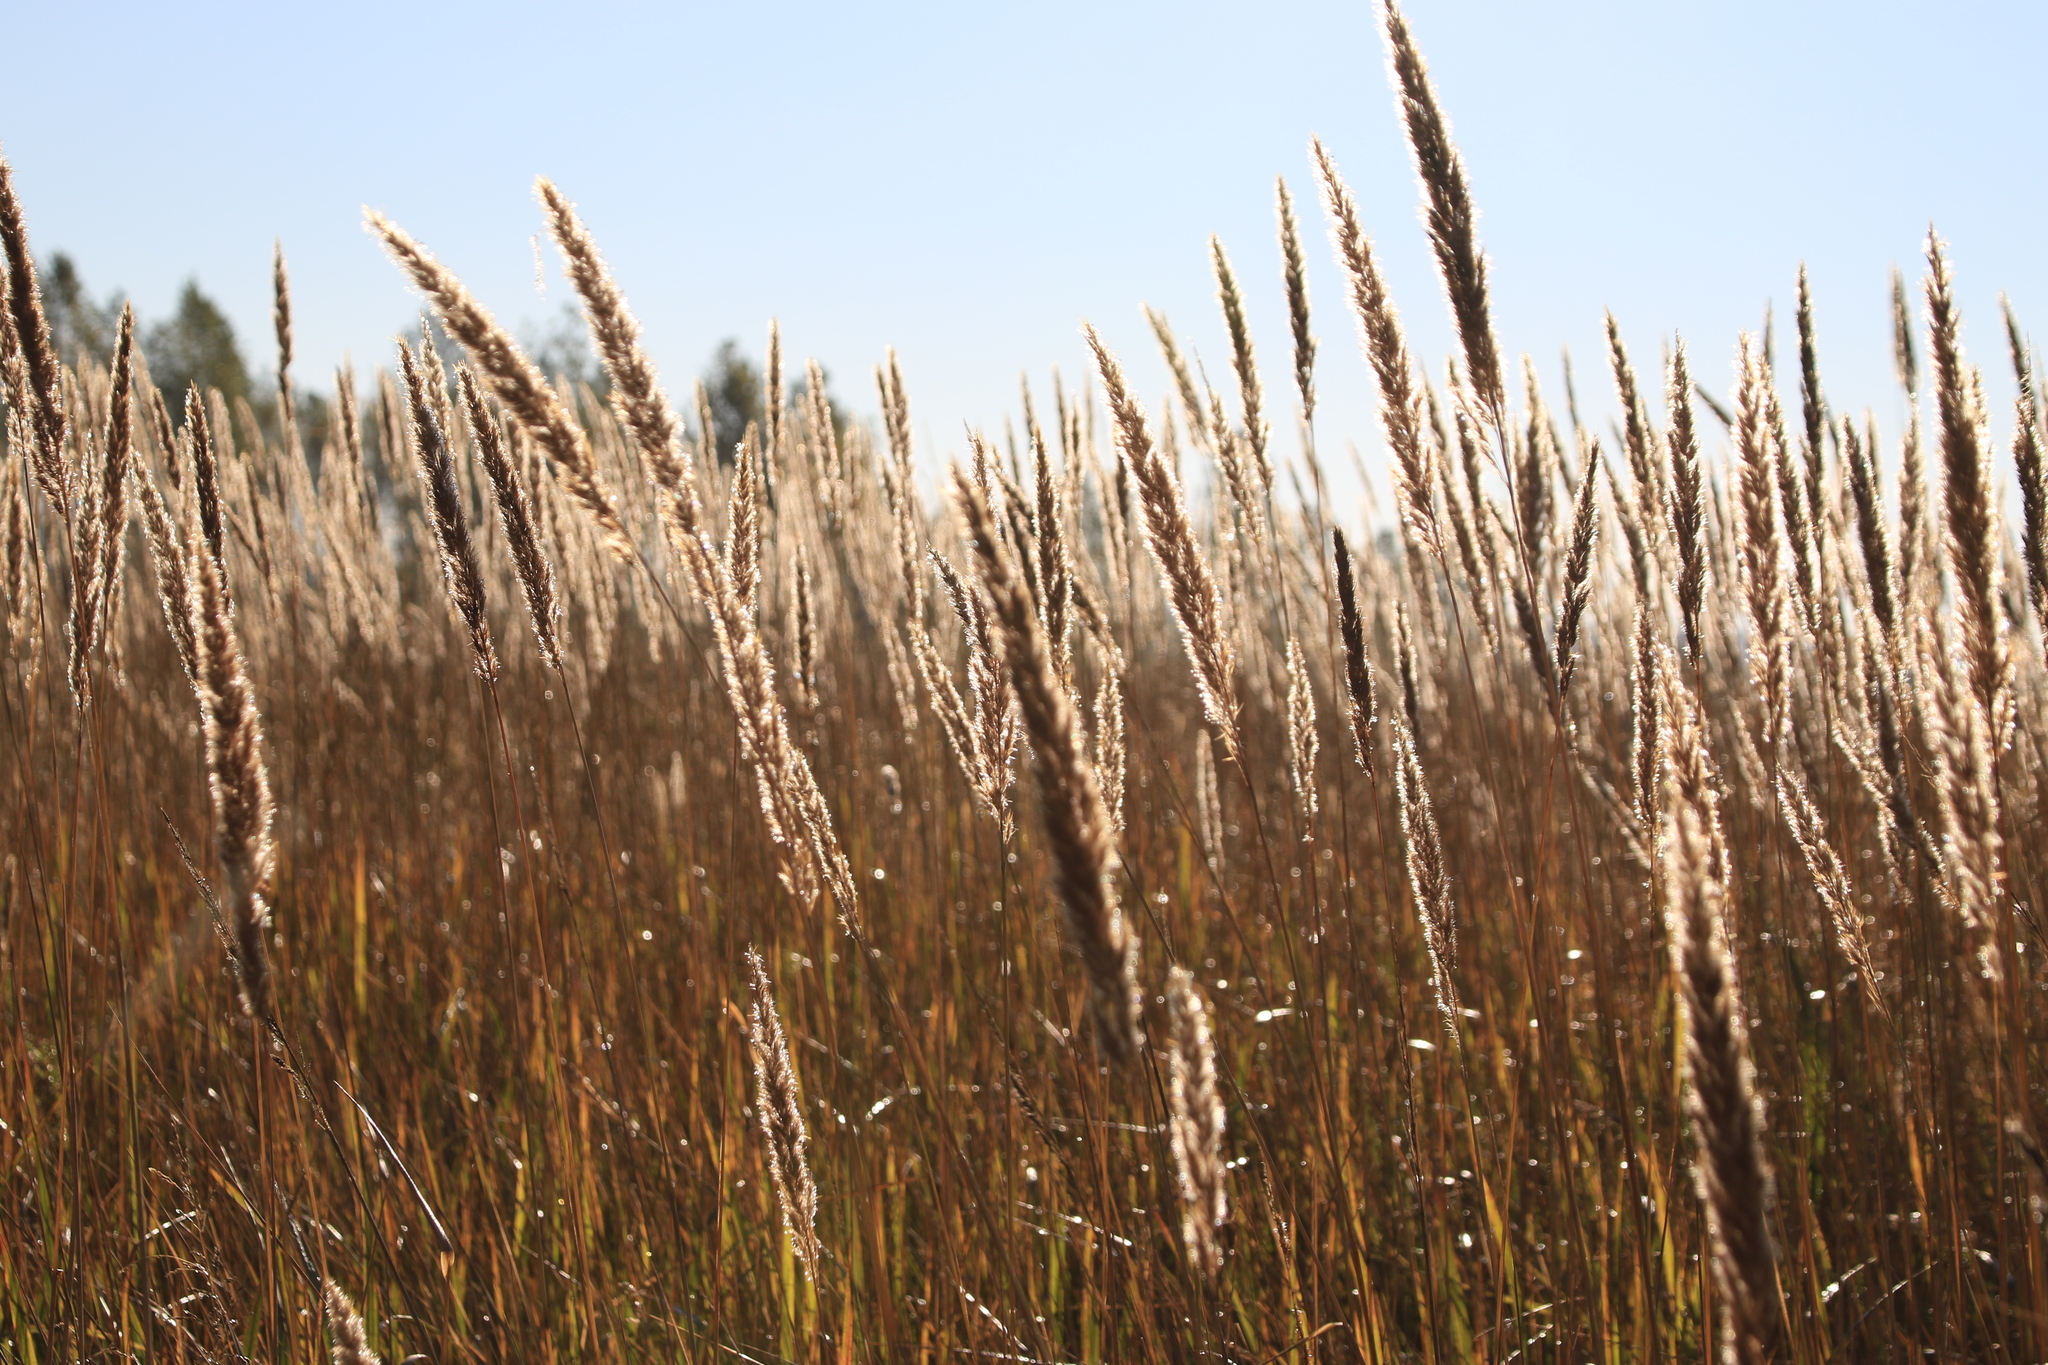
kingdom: Plantae
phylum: Tracheophyta
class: Liliopsida
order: Poales
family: Poaceae
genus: Calamagrostis
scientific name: Calamagrostis epigejos
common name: Wood small-reed
